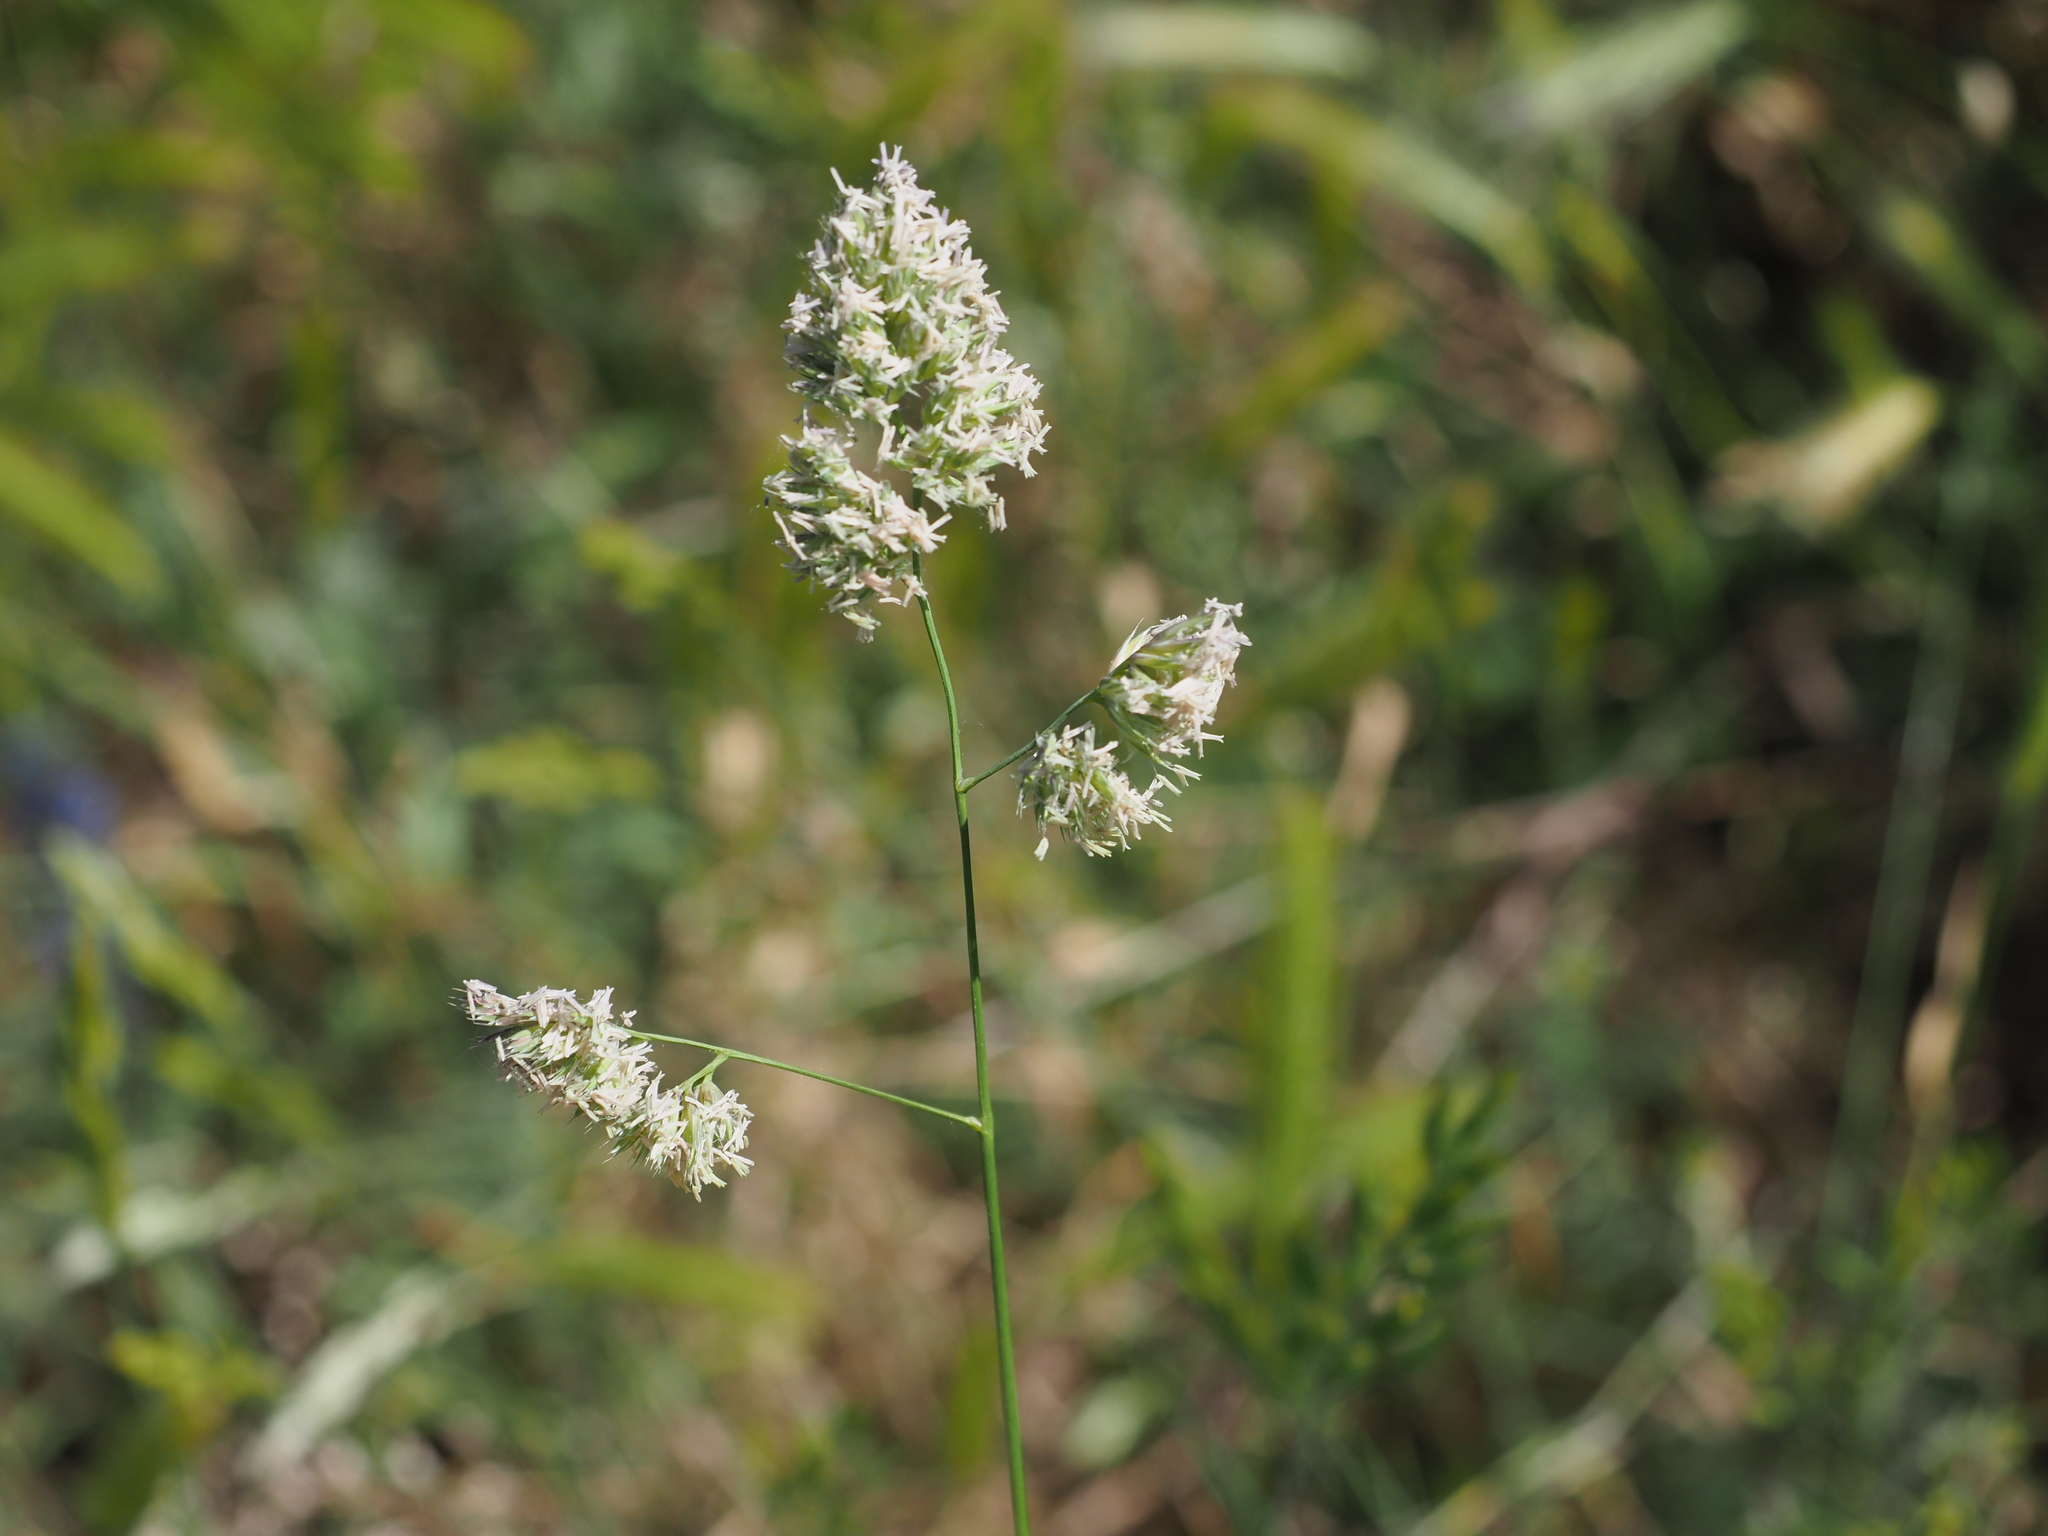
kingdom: Plantae
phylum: Tracheophyta
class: Liliopsida
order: Poales
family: Poaceae
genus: Dactylis
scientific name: Dactylis glomerata
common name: Orchardgrass
